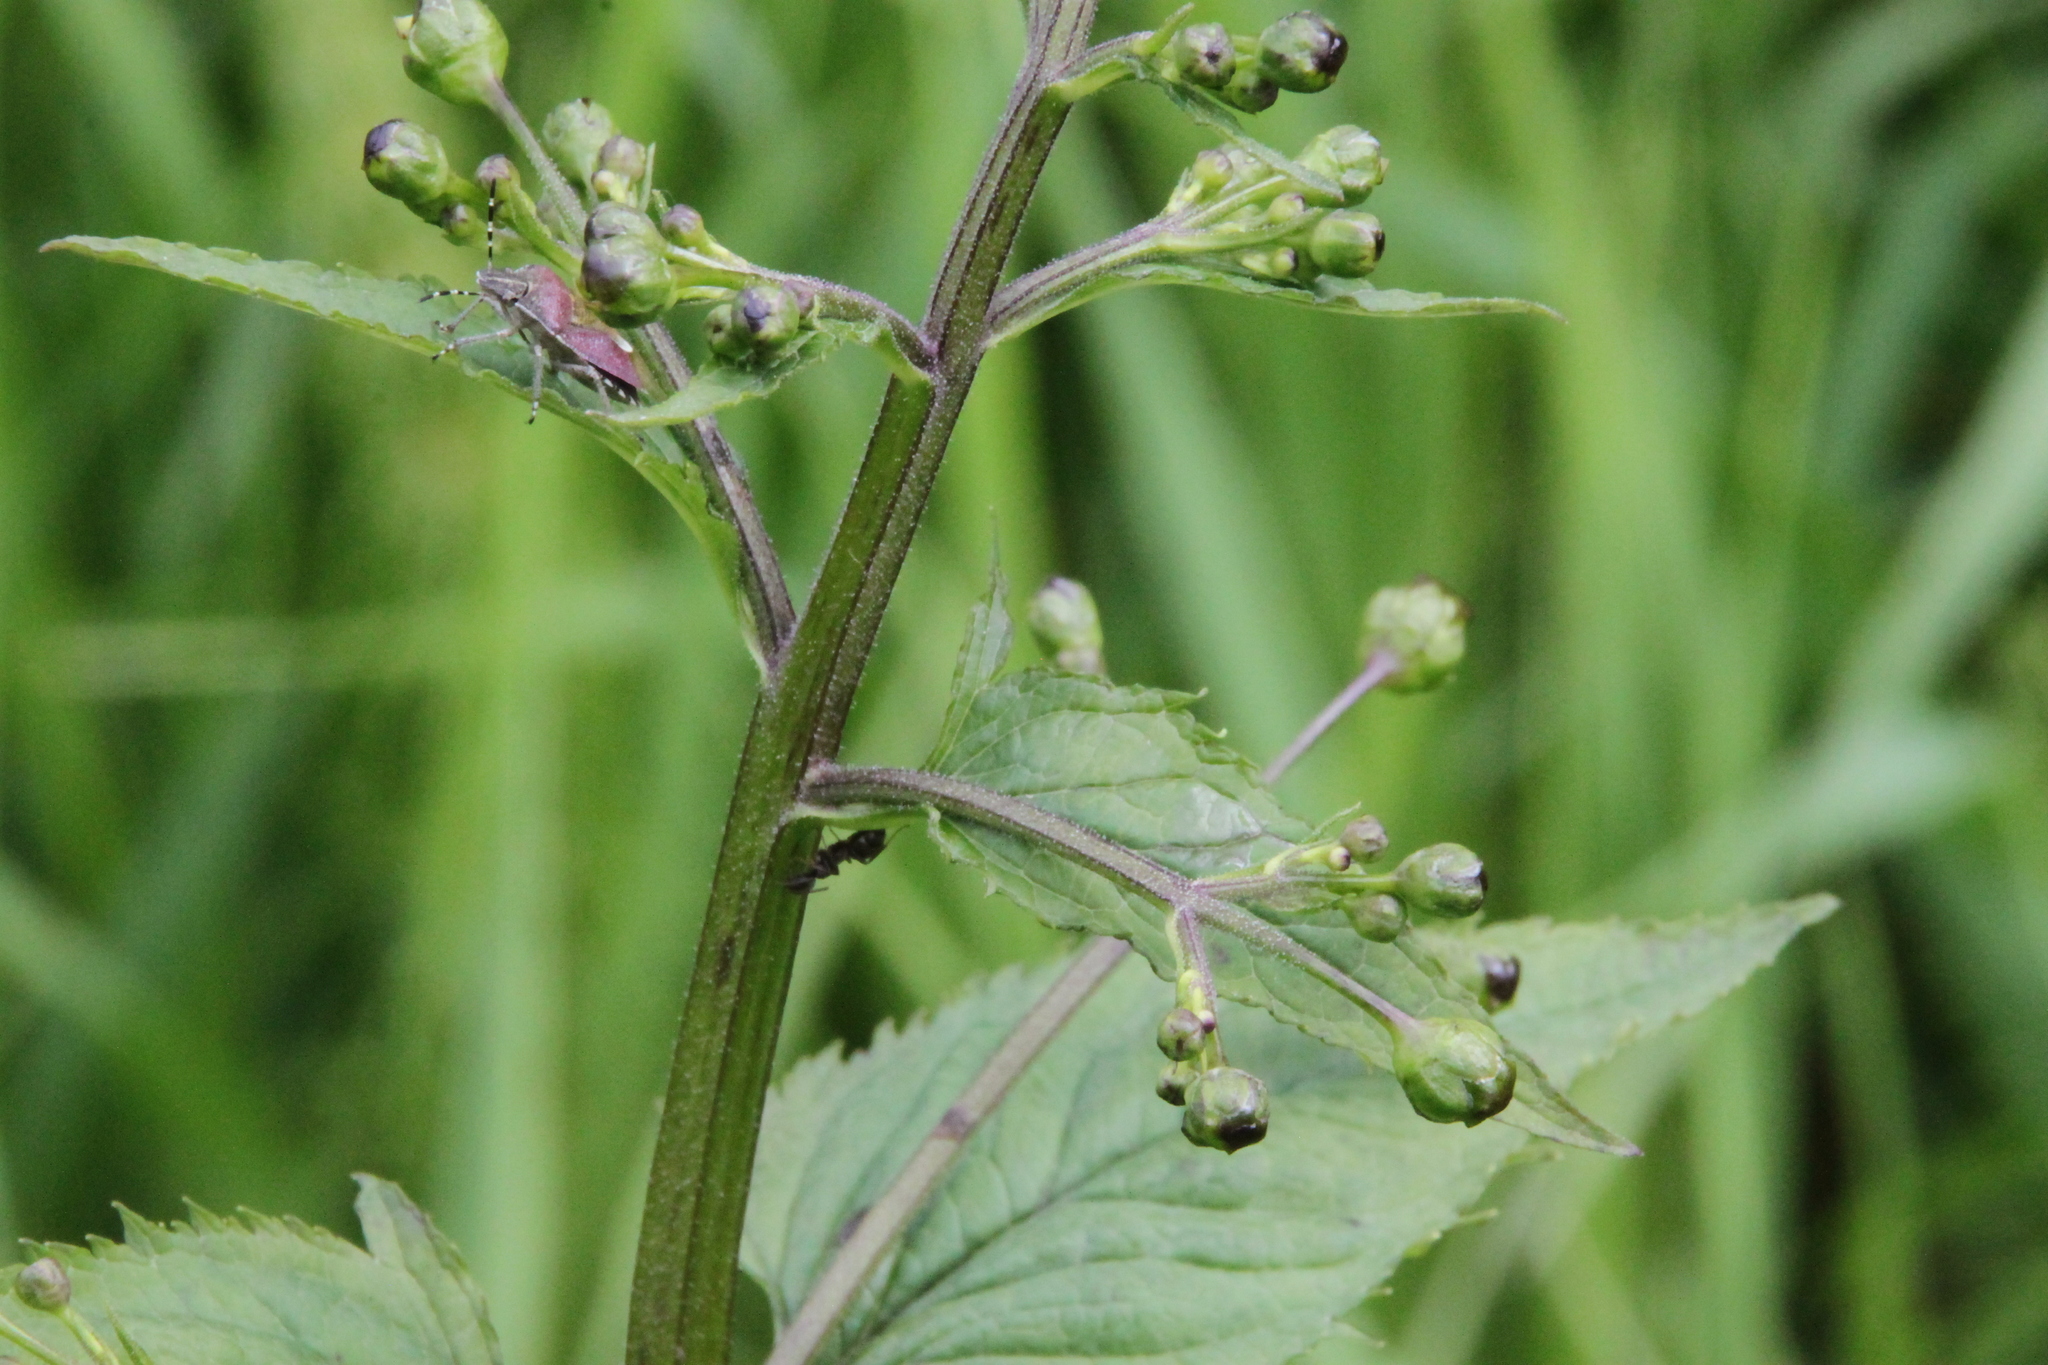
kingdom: Plantae
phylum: Tracheophyta
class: Magnoliopsida
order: Lamiales
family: Scrophulariaceae
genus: Scrophularia
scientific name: Scrophularia nodosa
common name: Common figwort
